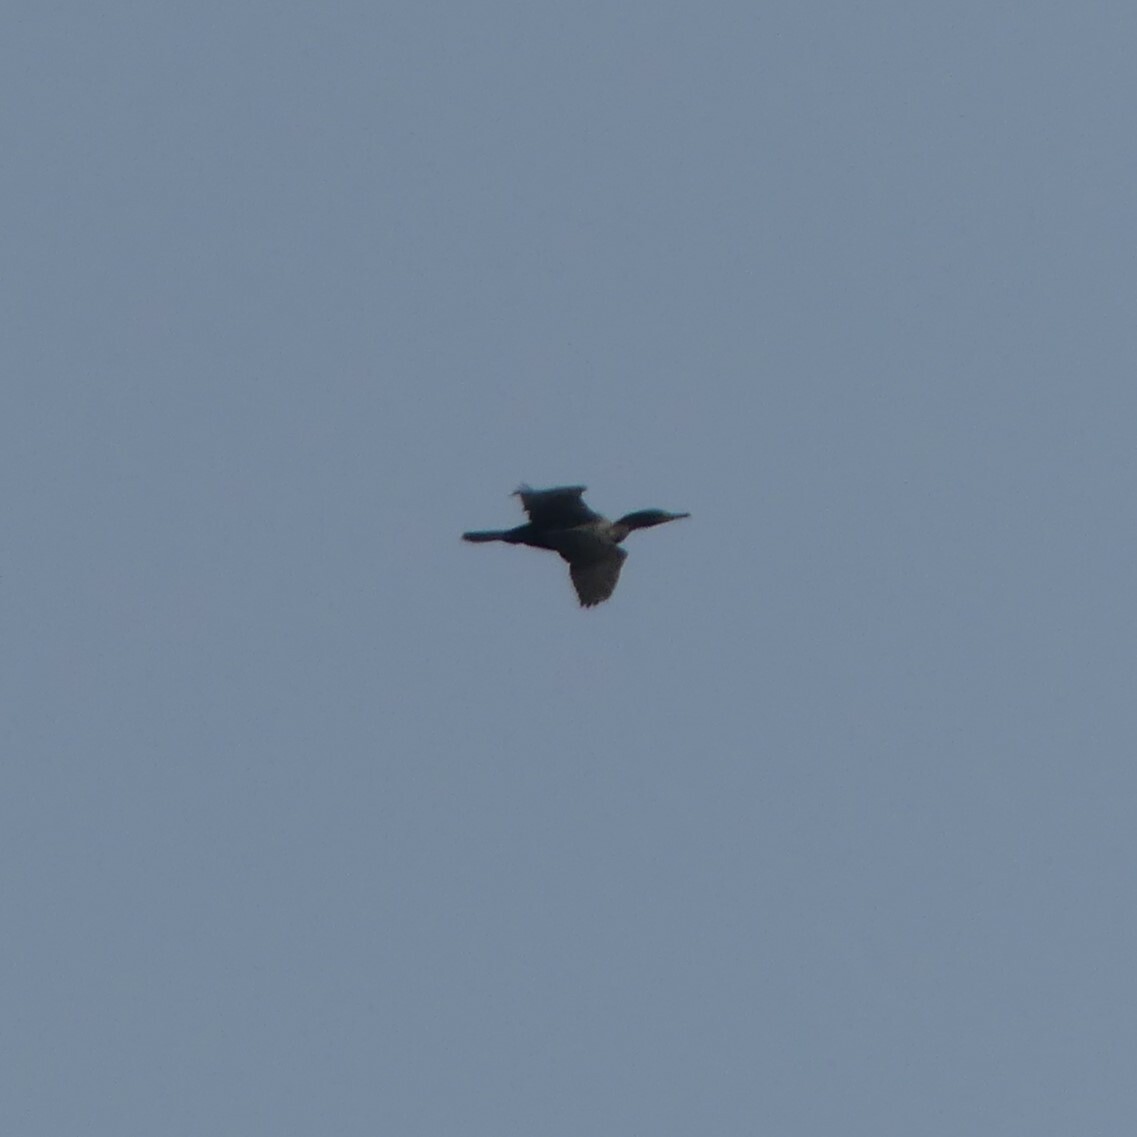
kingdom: Animalia
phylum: Chordata
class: Aves
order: Suliformes
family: Phalacrocoracidae
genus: Phalacrocorax
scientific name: Phalacrocorax auritus
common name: Double-crested cormorant
